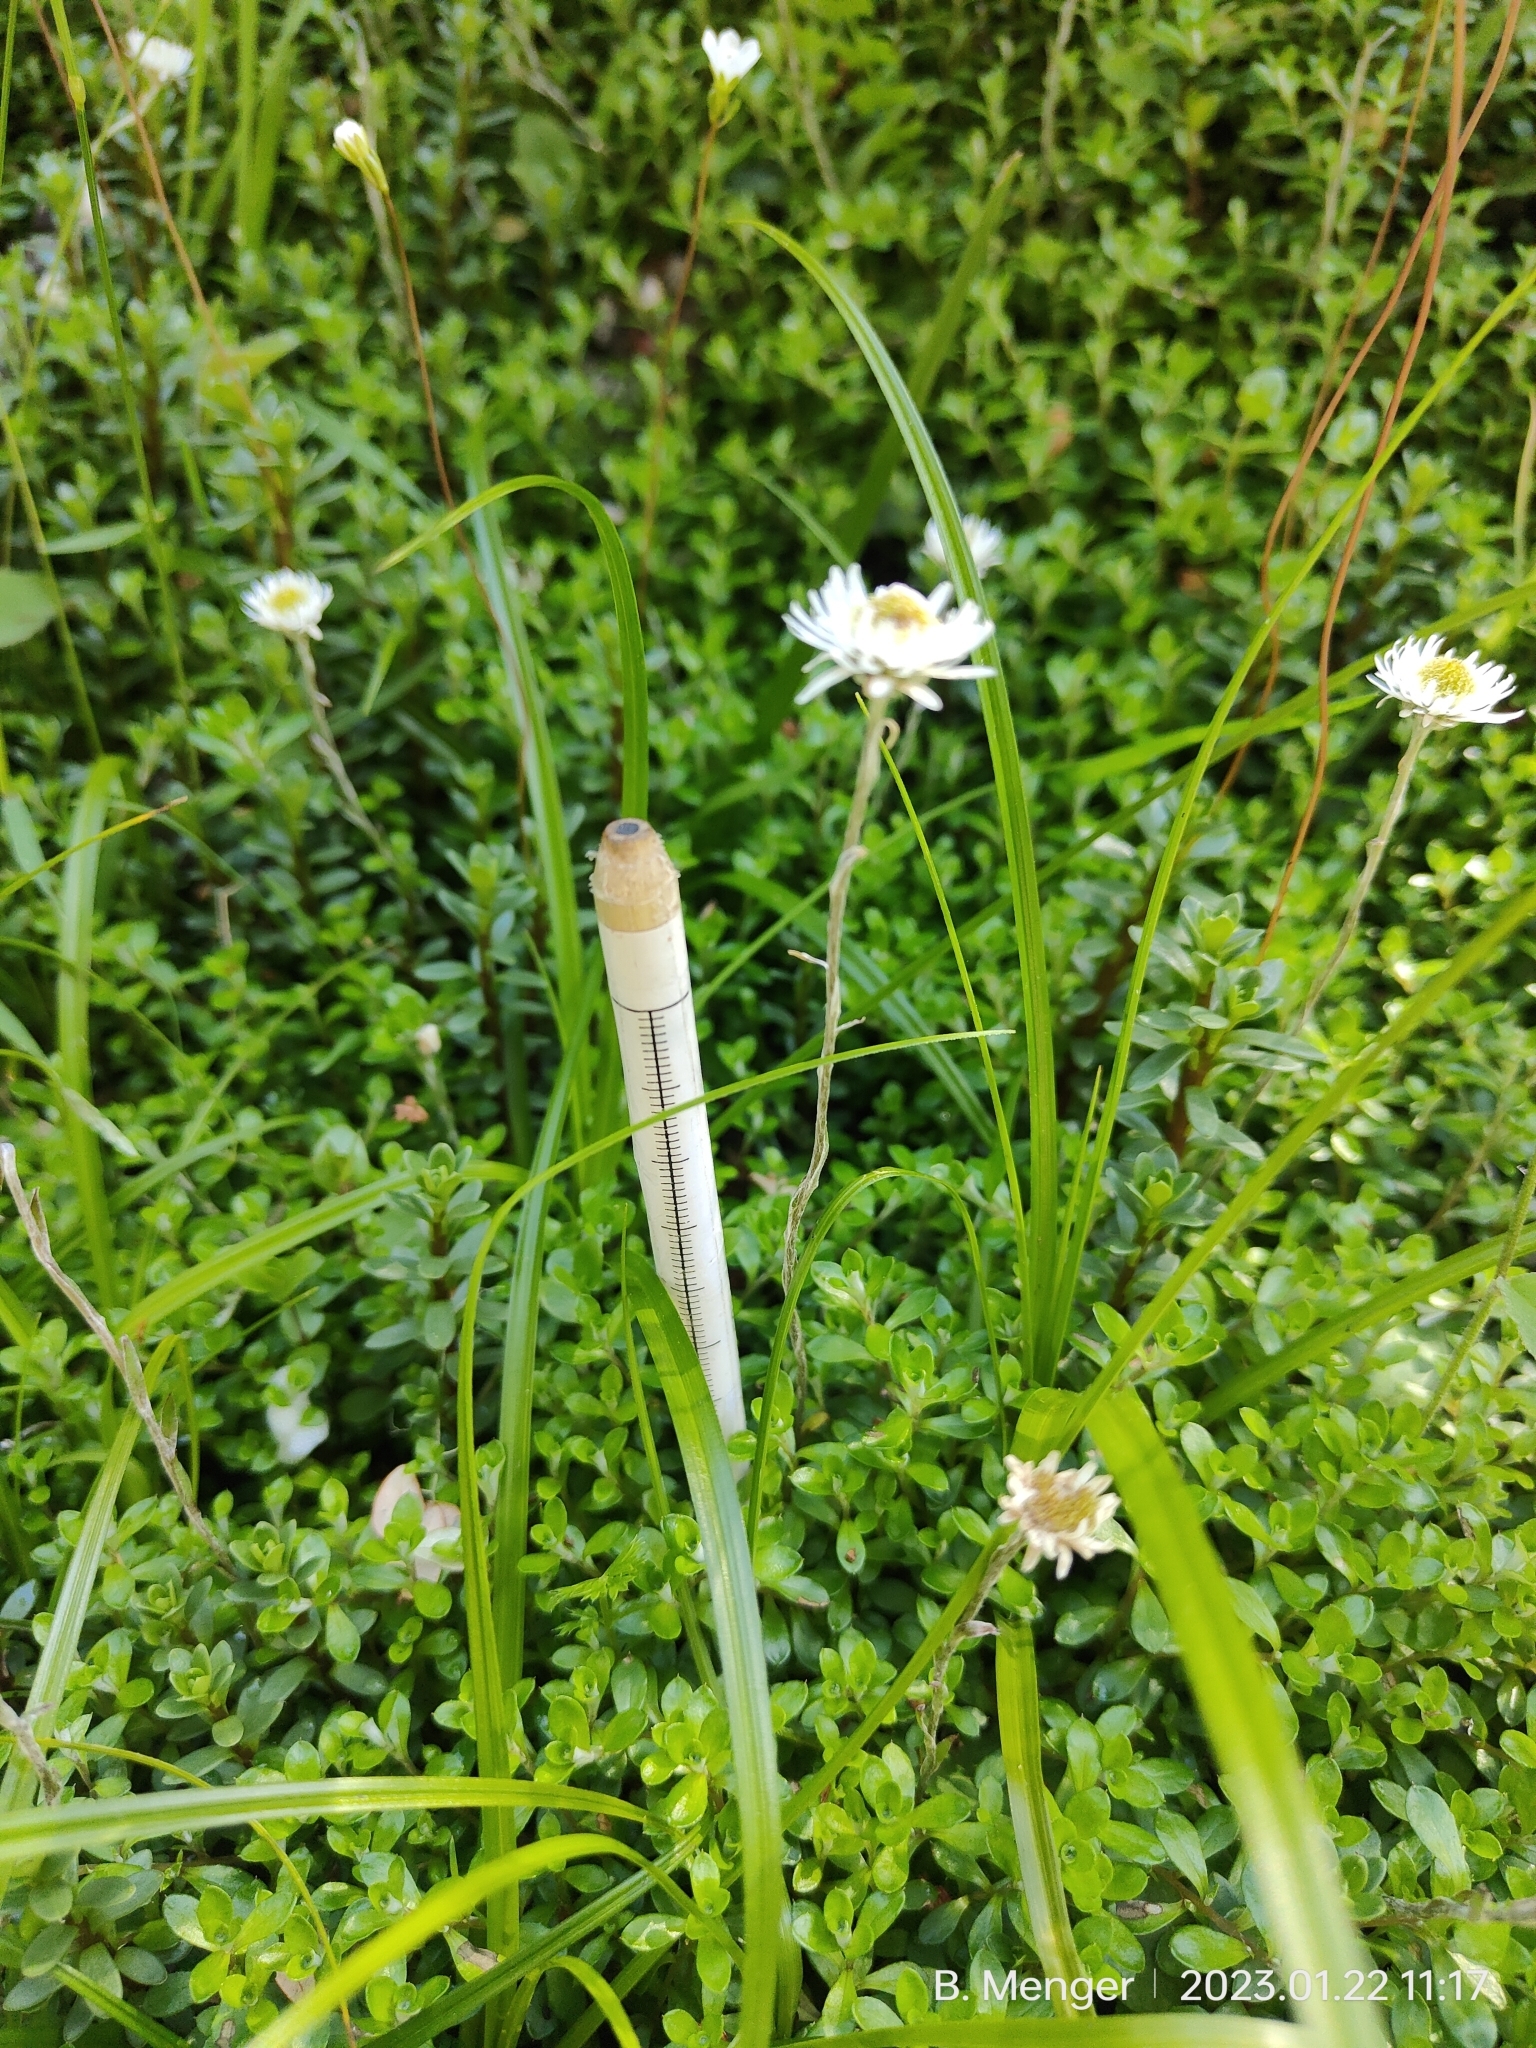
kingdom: Plantae
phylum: Tracheophyta
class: Magnoliopsida
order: Asterales
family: Asteraceae
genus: Anaphalioides
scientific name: Anaphalioides bellidioides
